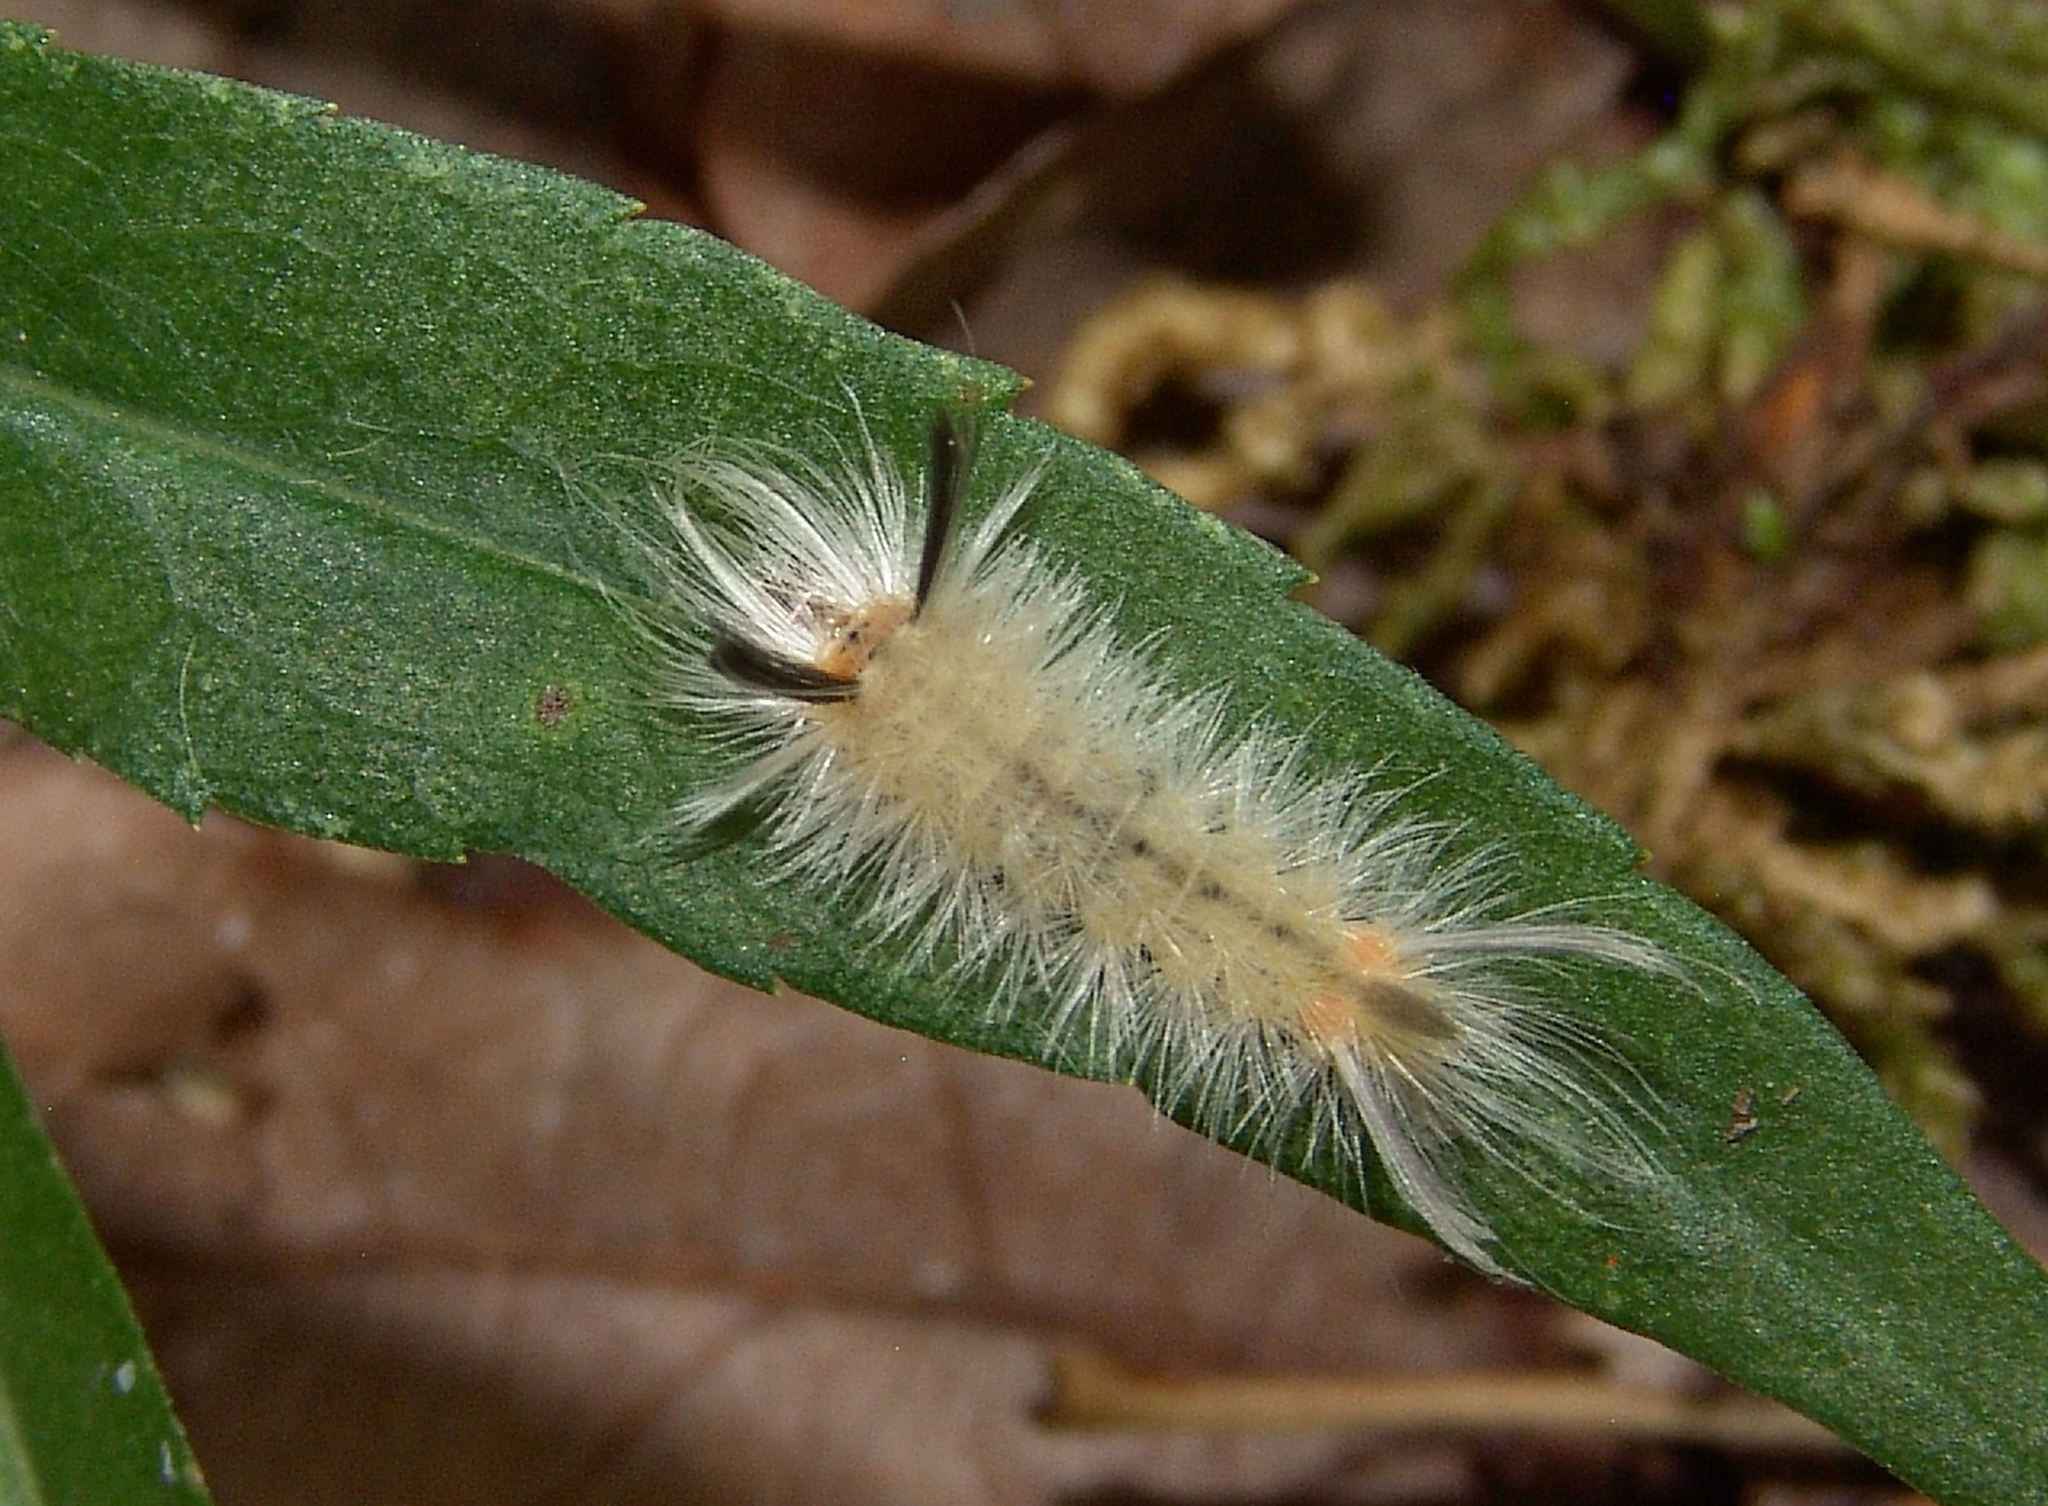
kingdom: Animalia
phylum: Arthropoda
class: Insecta
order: Lepidoptera
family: Erebidae
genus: Halysidota
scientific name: Halysidota tessellaris
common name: Banded tussock moth
